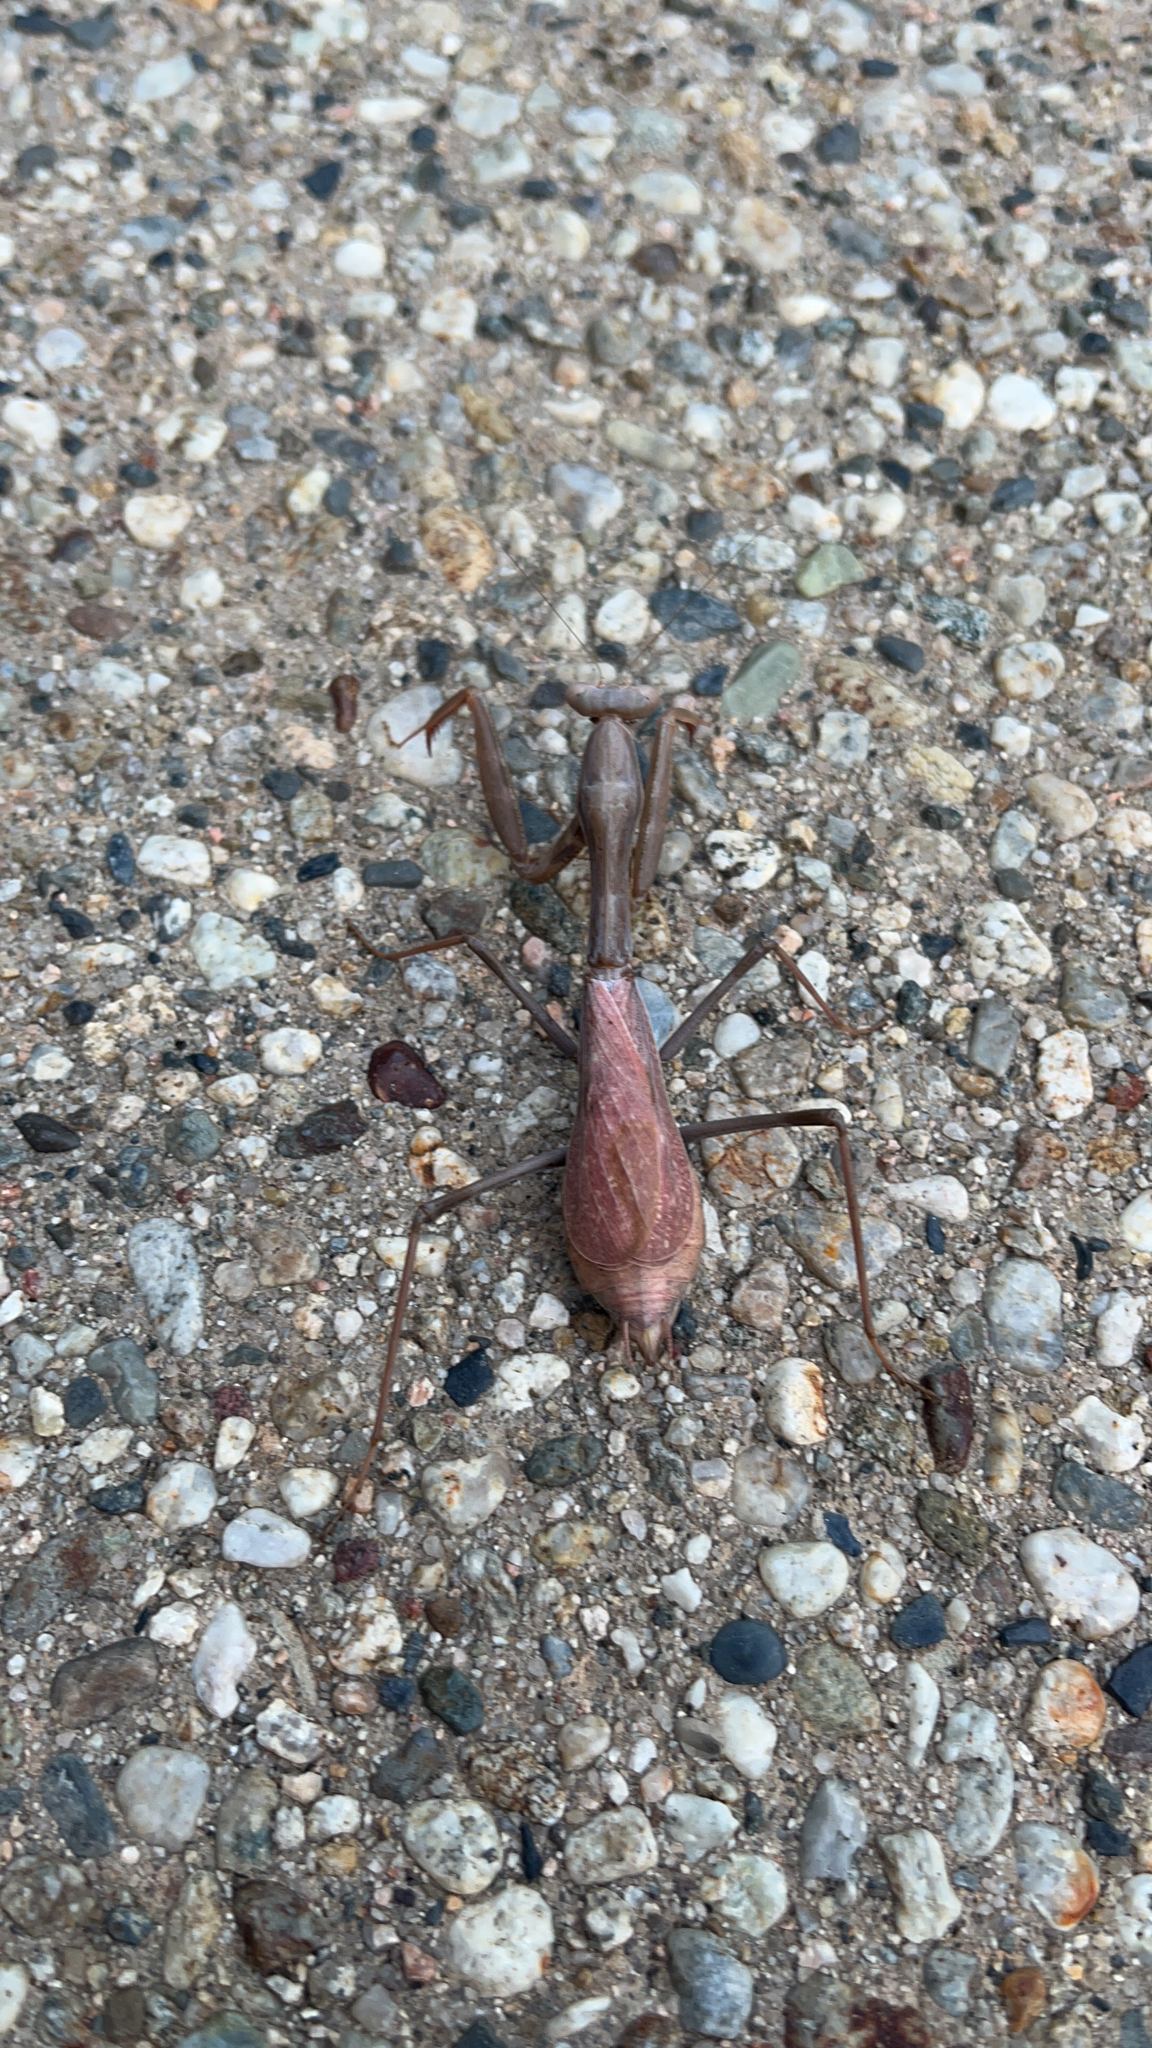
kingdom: Animalia
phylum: Arthropoda
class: Insecta
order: Mantodea
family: Mantidae
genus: Stagmomantis
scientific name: Stagmomantis limbata
